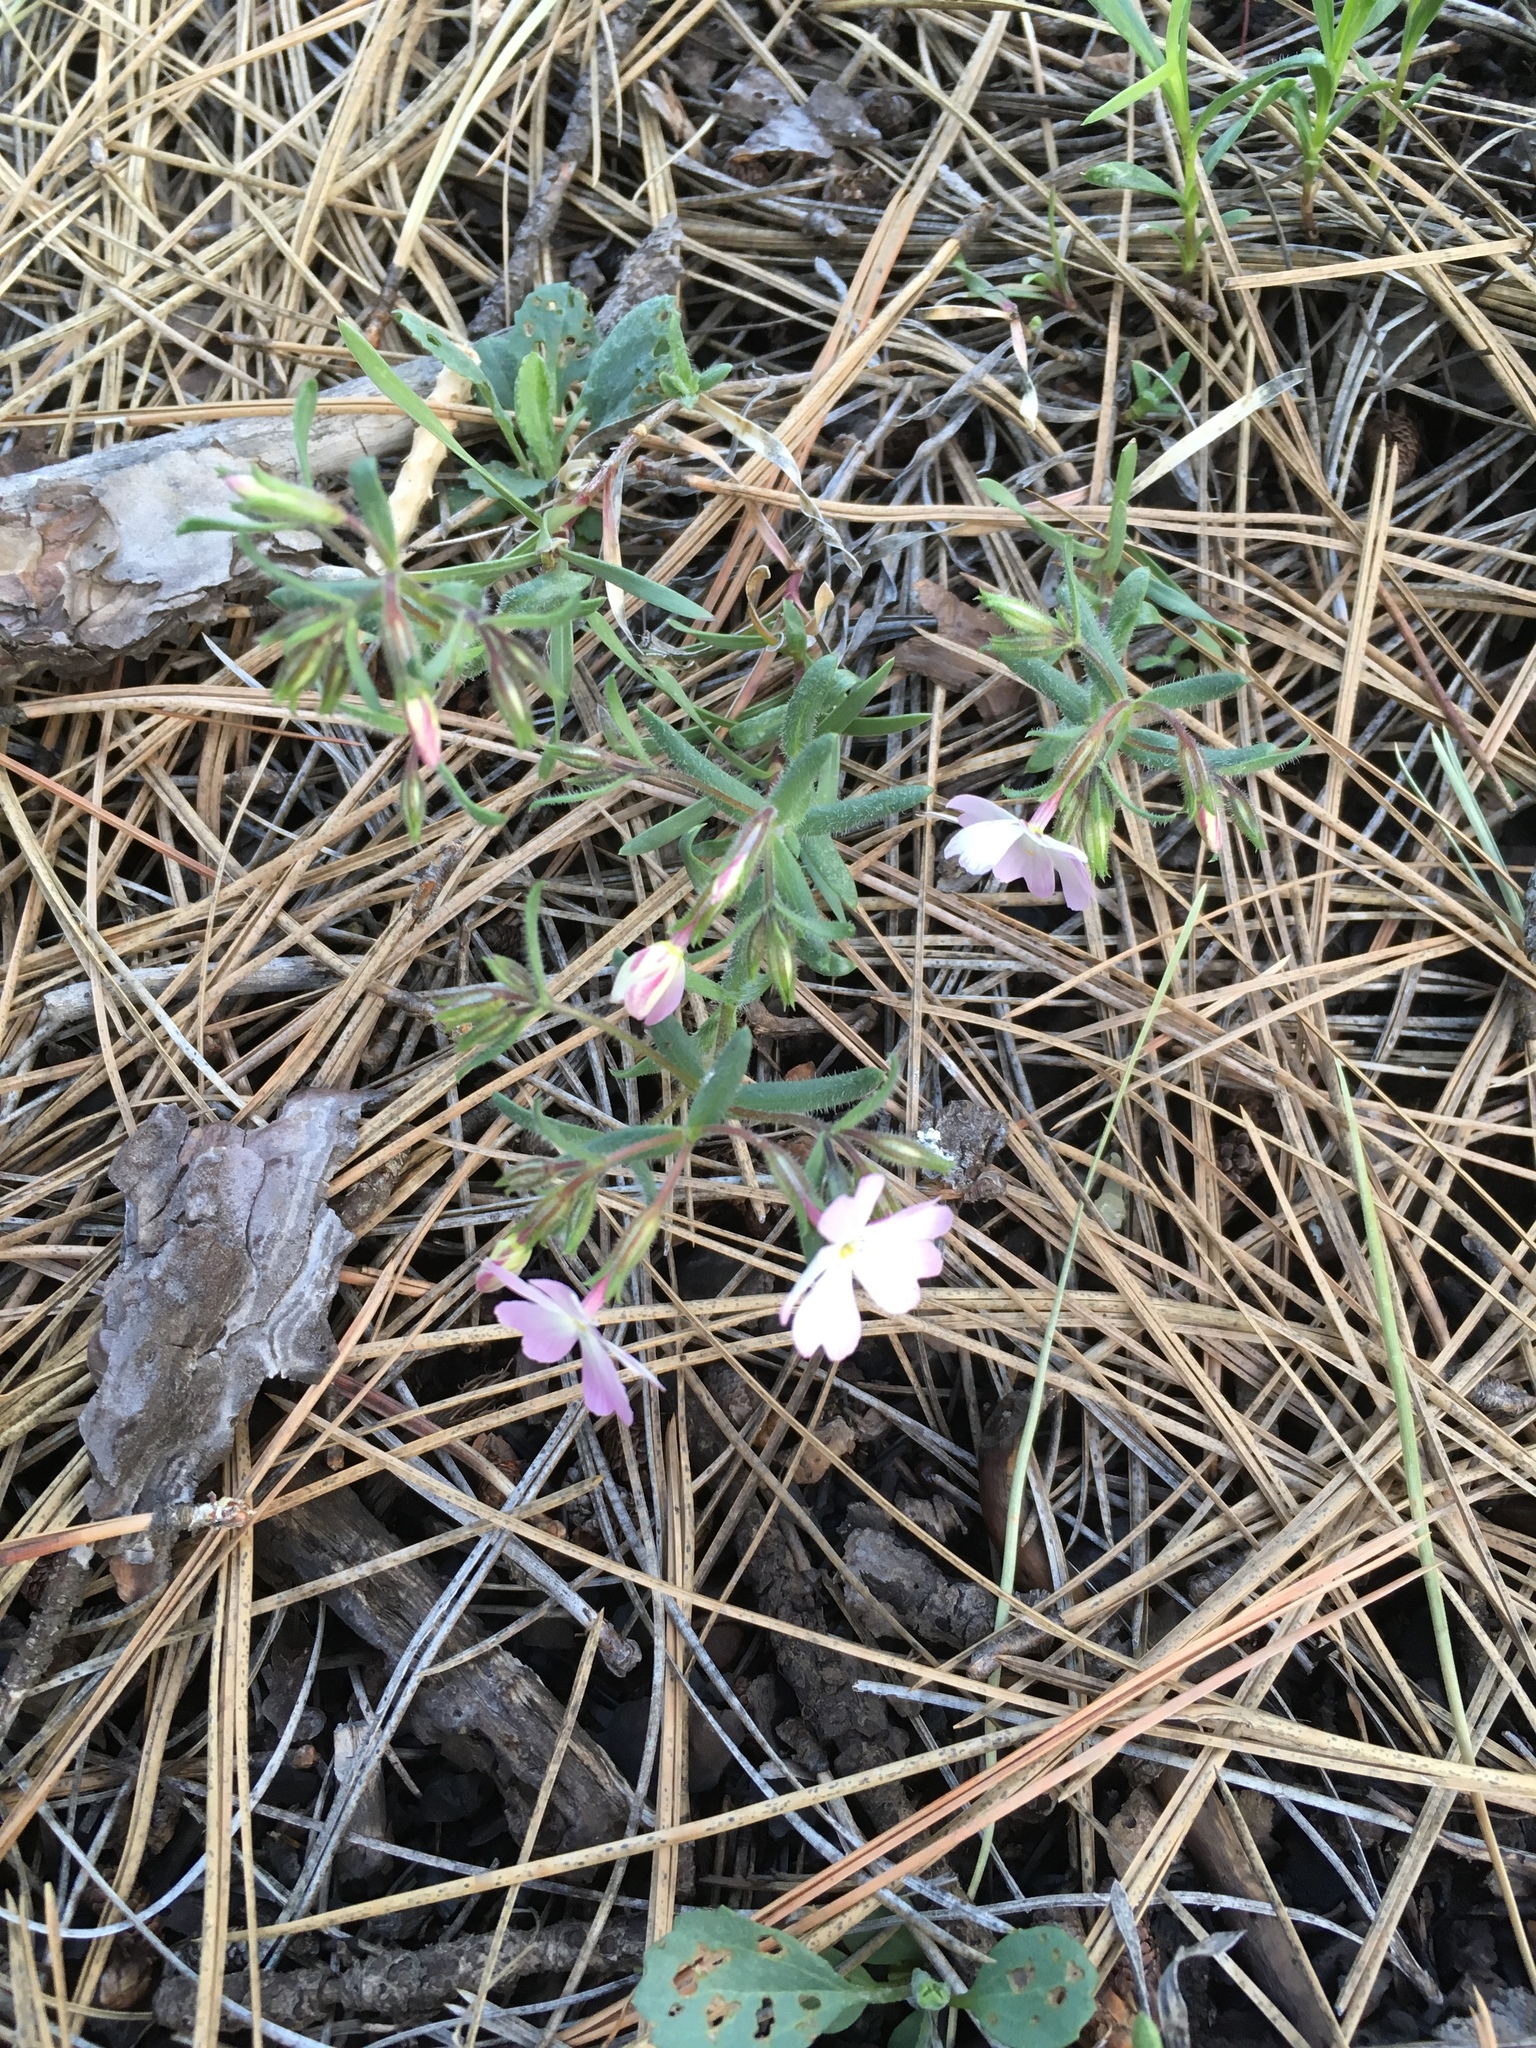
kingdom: Plantae
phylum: Tracheophyta
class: Magnoliopsida
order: Ericales
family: Polemoniaceae
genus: Phlox
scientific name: Phlox woodhousei
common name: Star phlox
